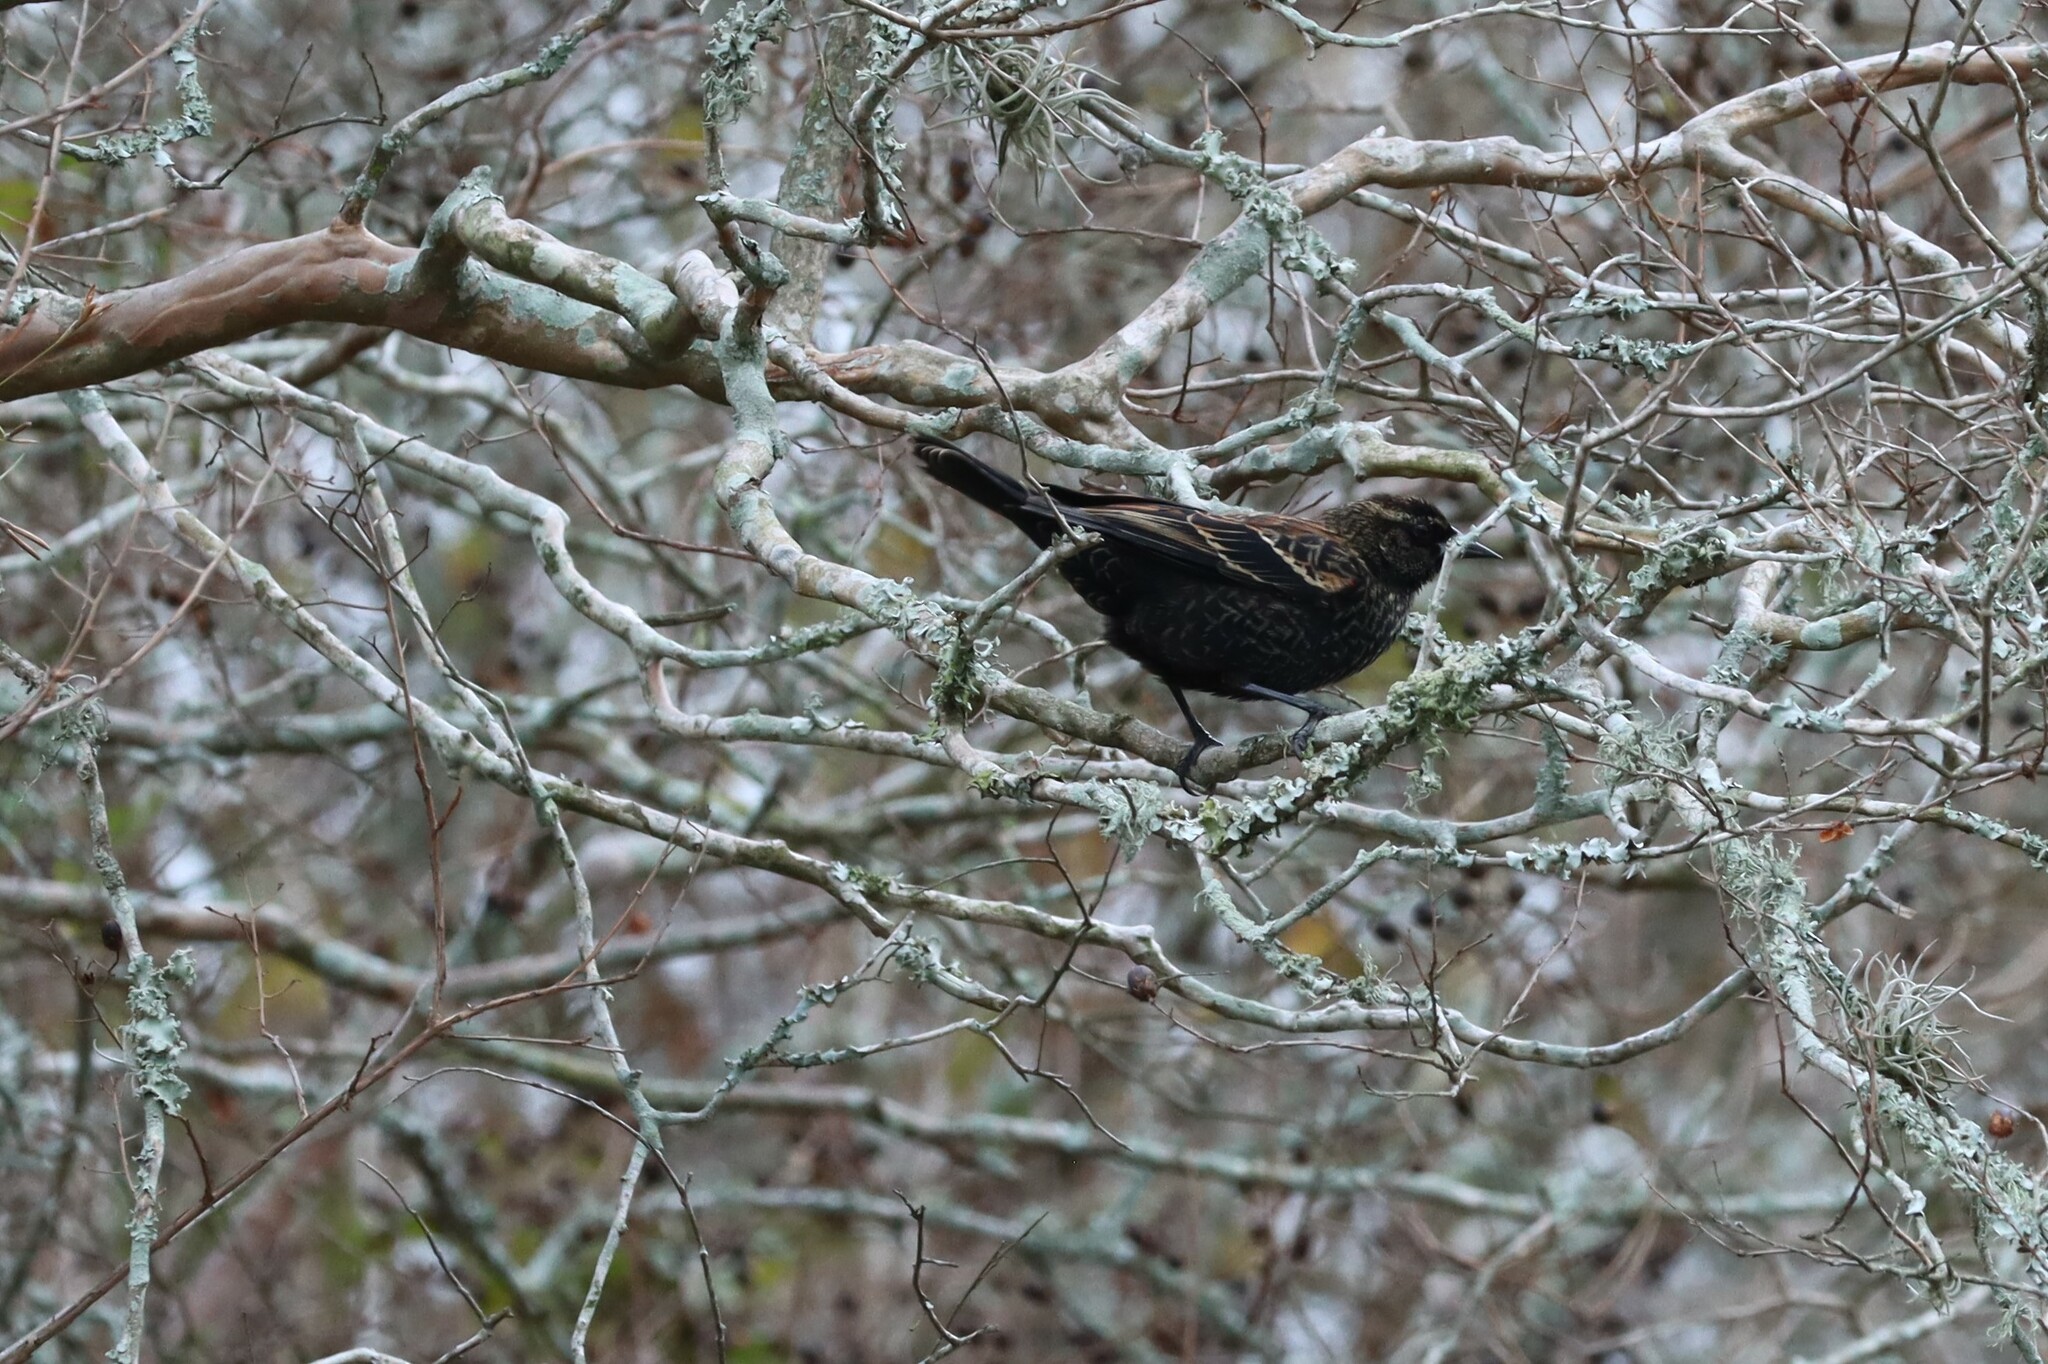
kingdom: Animalia
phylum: Chordata
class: Aves
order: Passeriformes
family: Icteridae
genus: Agelaius
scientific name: Agelaius phoeniceus
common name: Red-winged blackbird
